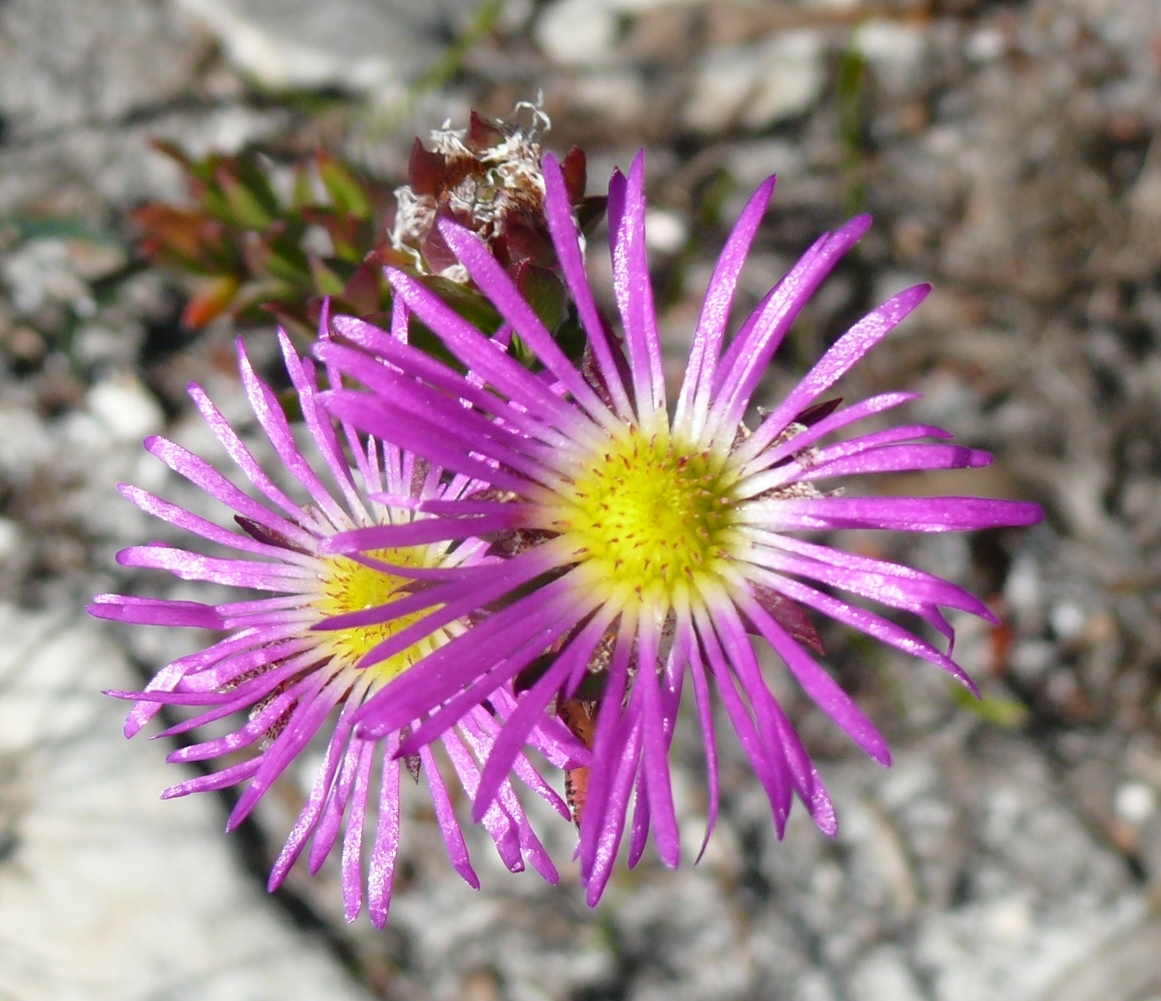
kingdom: Plantae
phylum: Tracheophyta
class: Magnoliopsida
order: Caryophyllales
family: Aizoaceae
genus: Erepsia
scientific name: Erepsia anceps
